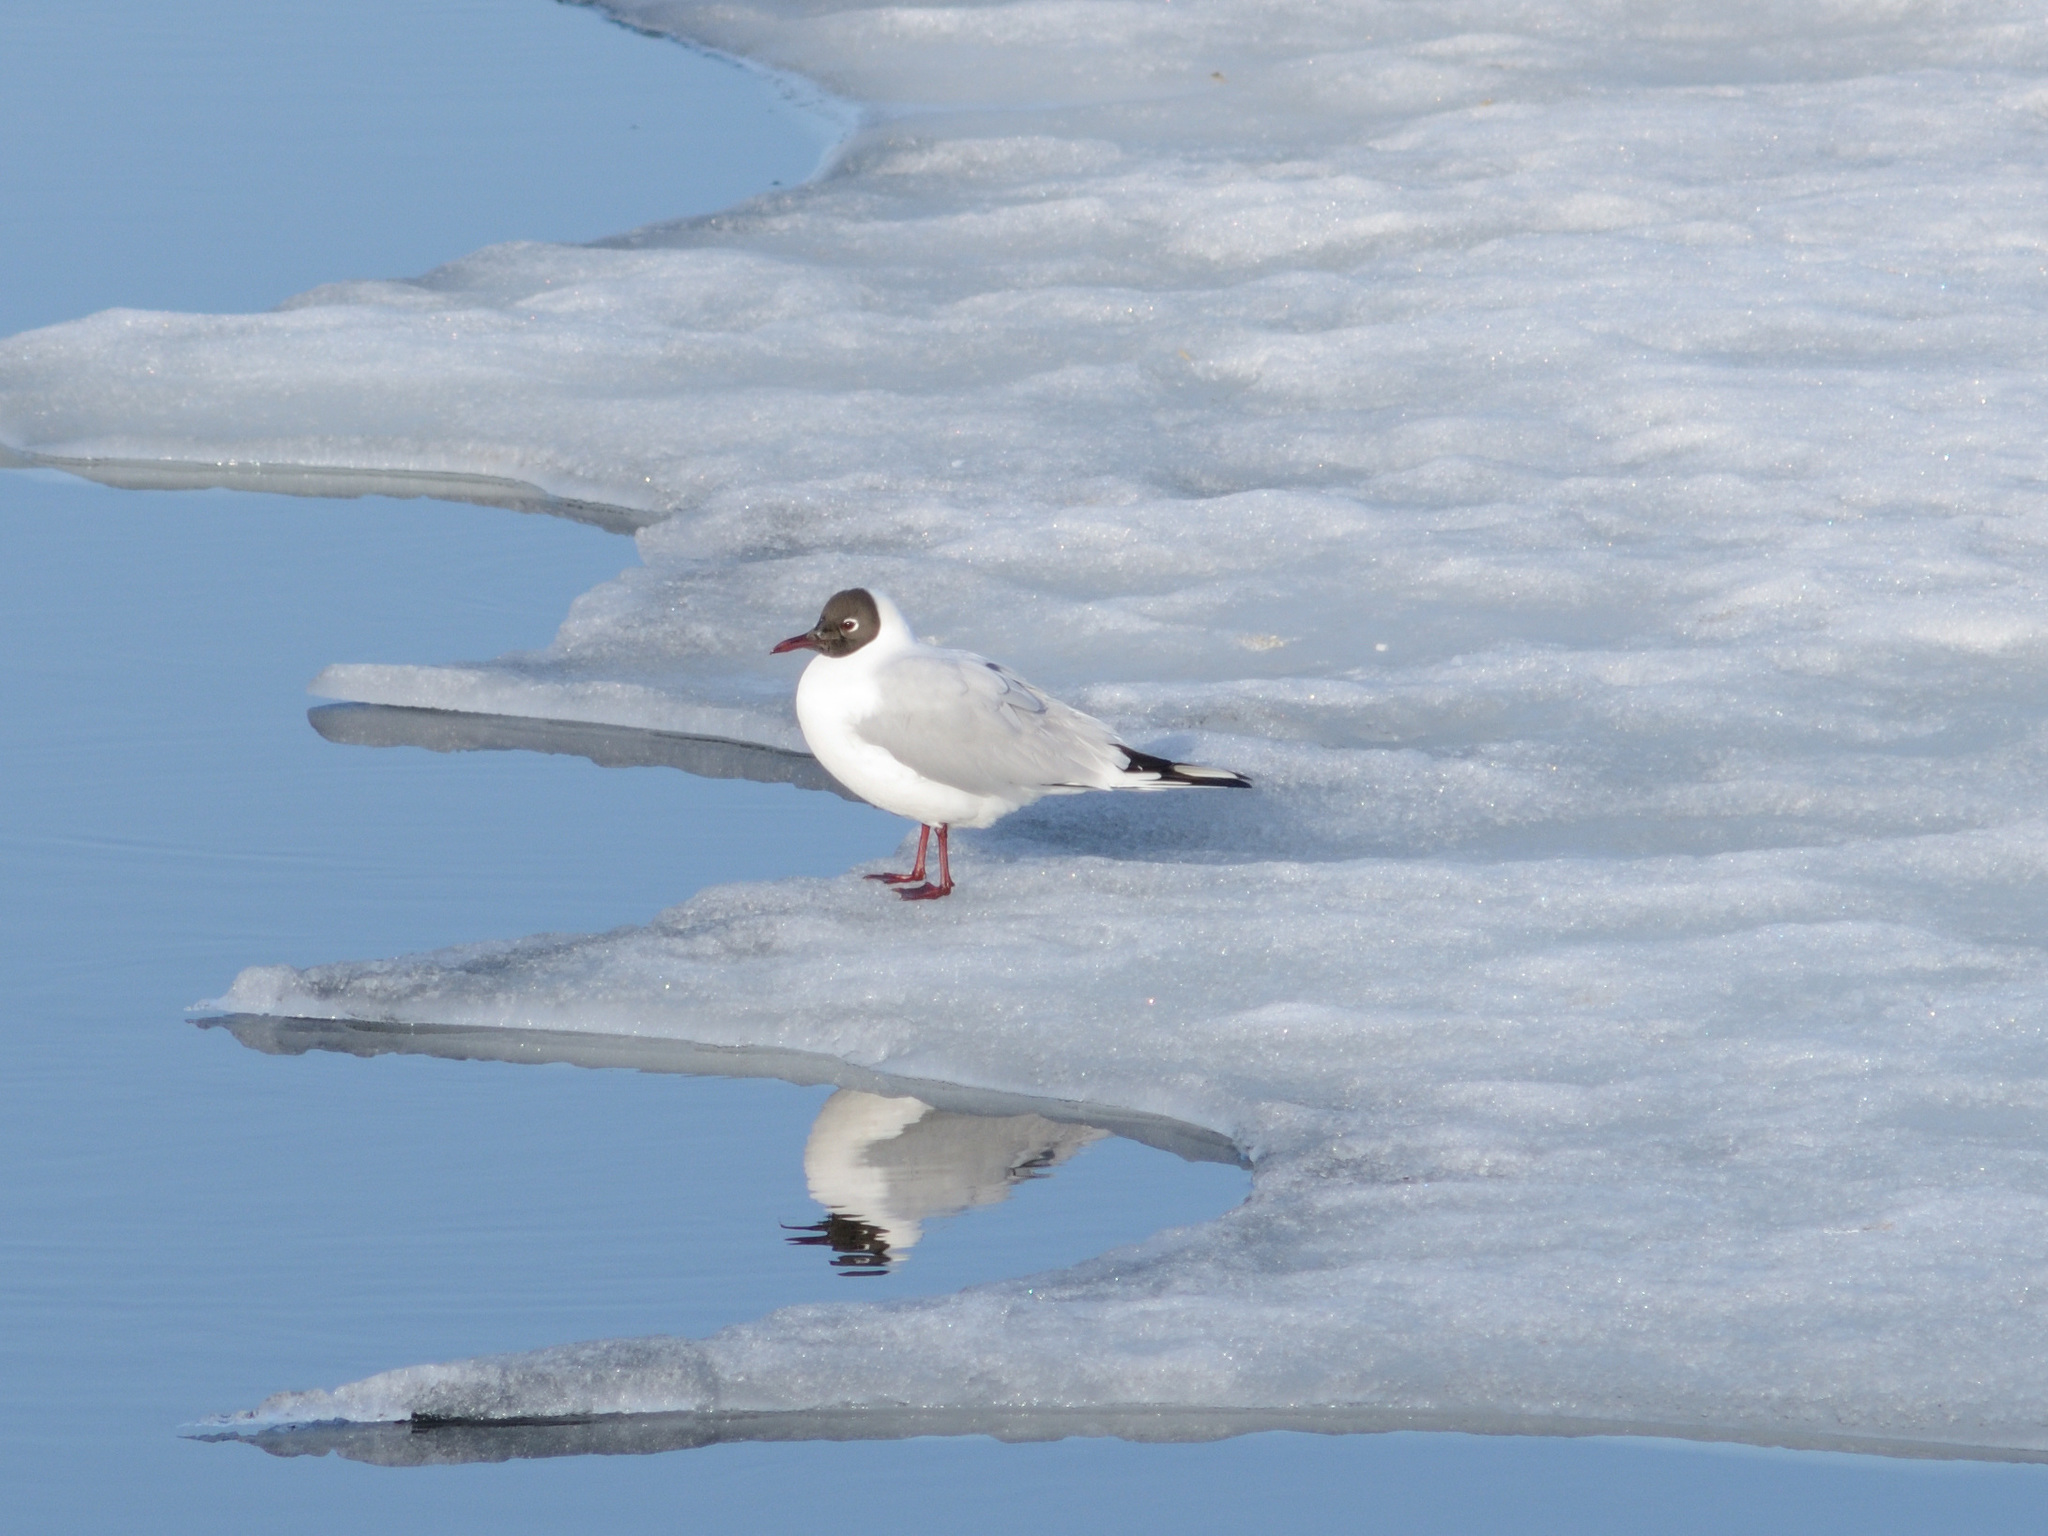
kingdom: Animalia
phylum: Chordata
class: Aves
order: Charadriiformes
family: Laridae
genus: Chroicocephalus
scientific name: Chroicocephalus ridibundus
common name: Black-headed gull
